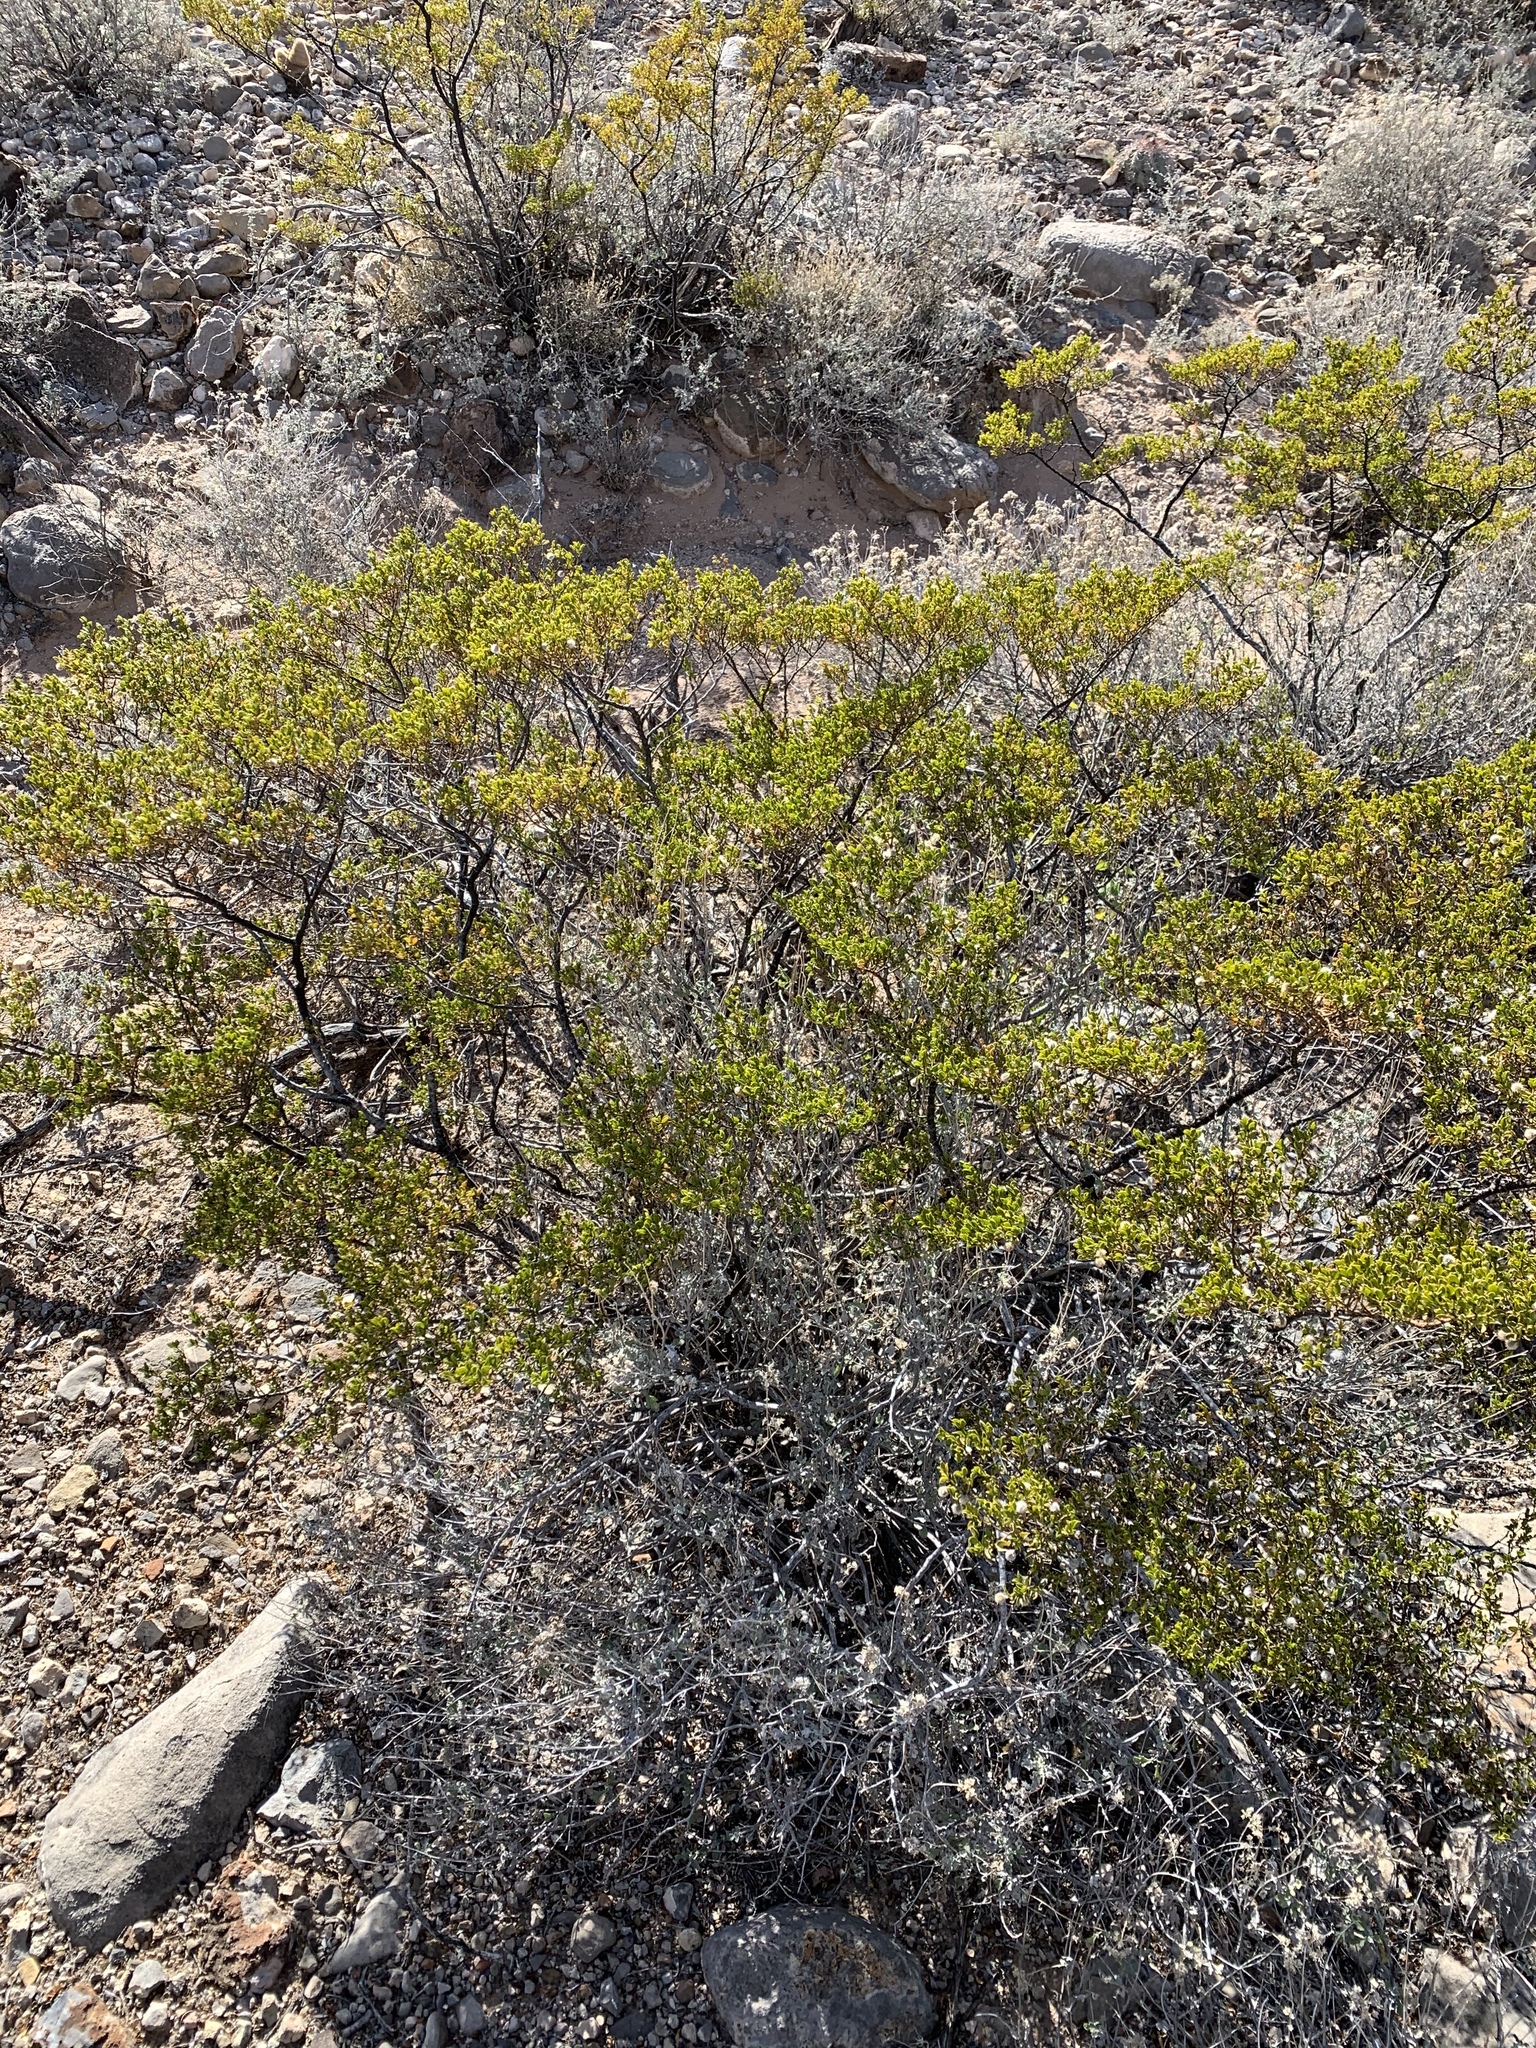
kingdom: Plantae
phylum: Tracheophyta
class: Magnoliopsida
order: Zygophyllales
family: Zygophyllaceae
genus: Larrea
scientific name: Larrea tridentata
